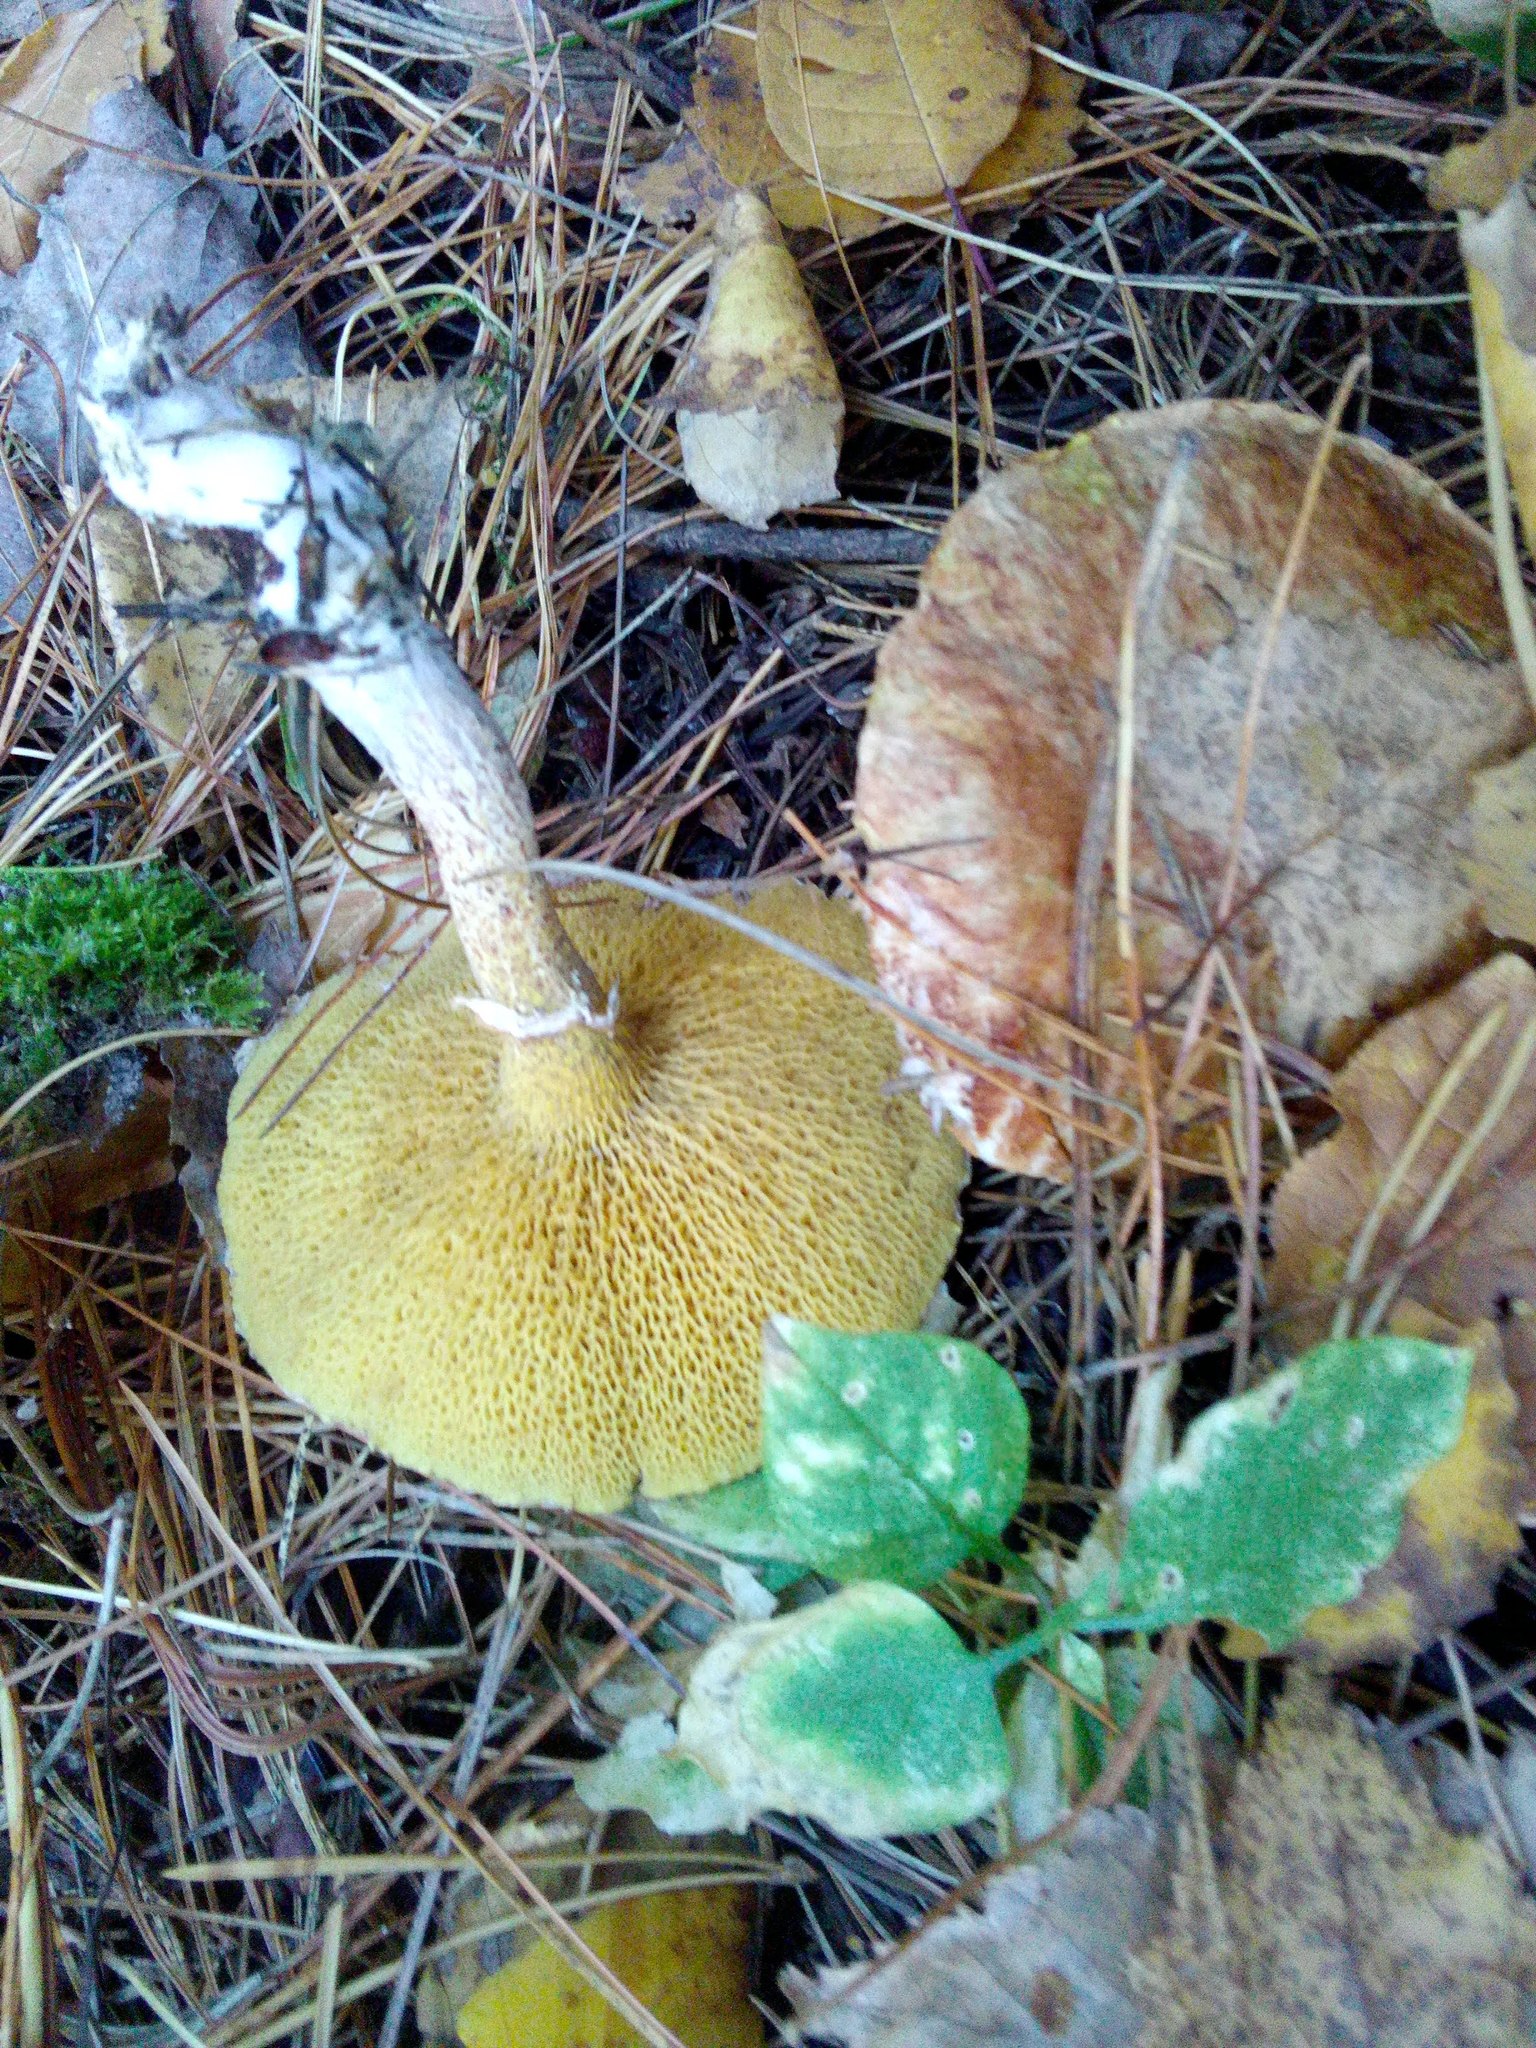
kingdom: Fungi
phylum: Basidiomycota
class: Agaricomycetes
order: Boletales
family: Suillaceae
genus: Suillus
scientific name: Suillus americanus
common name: Chicken fat mushroom
